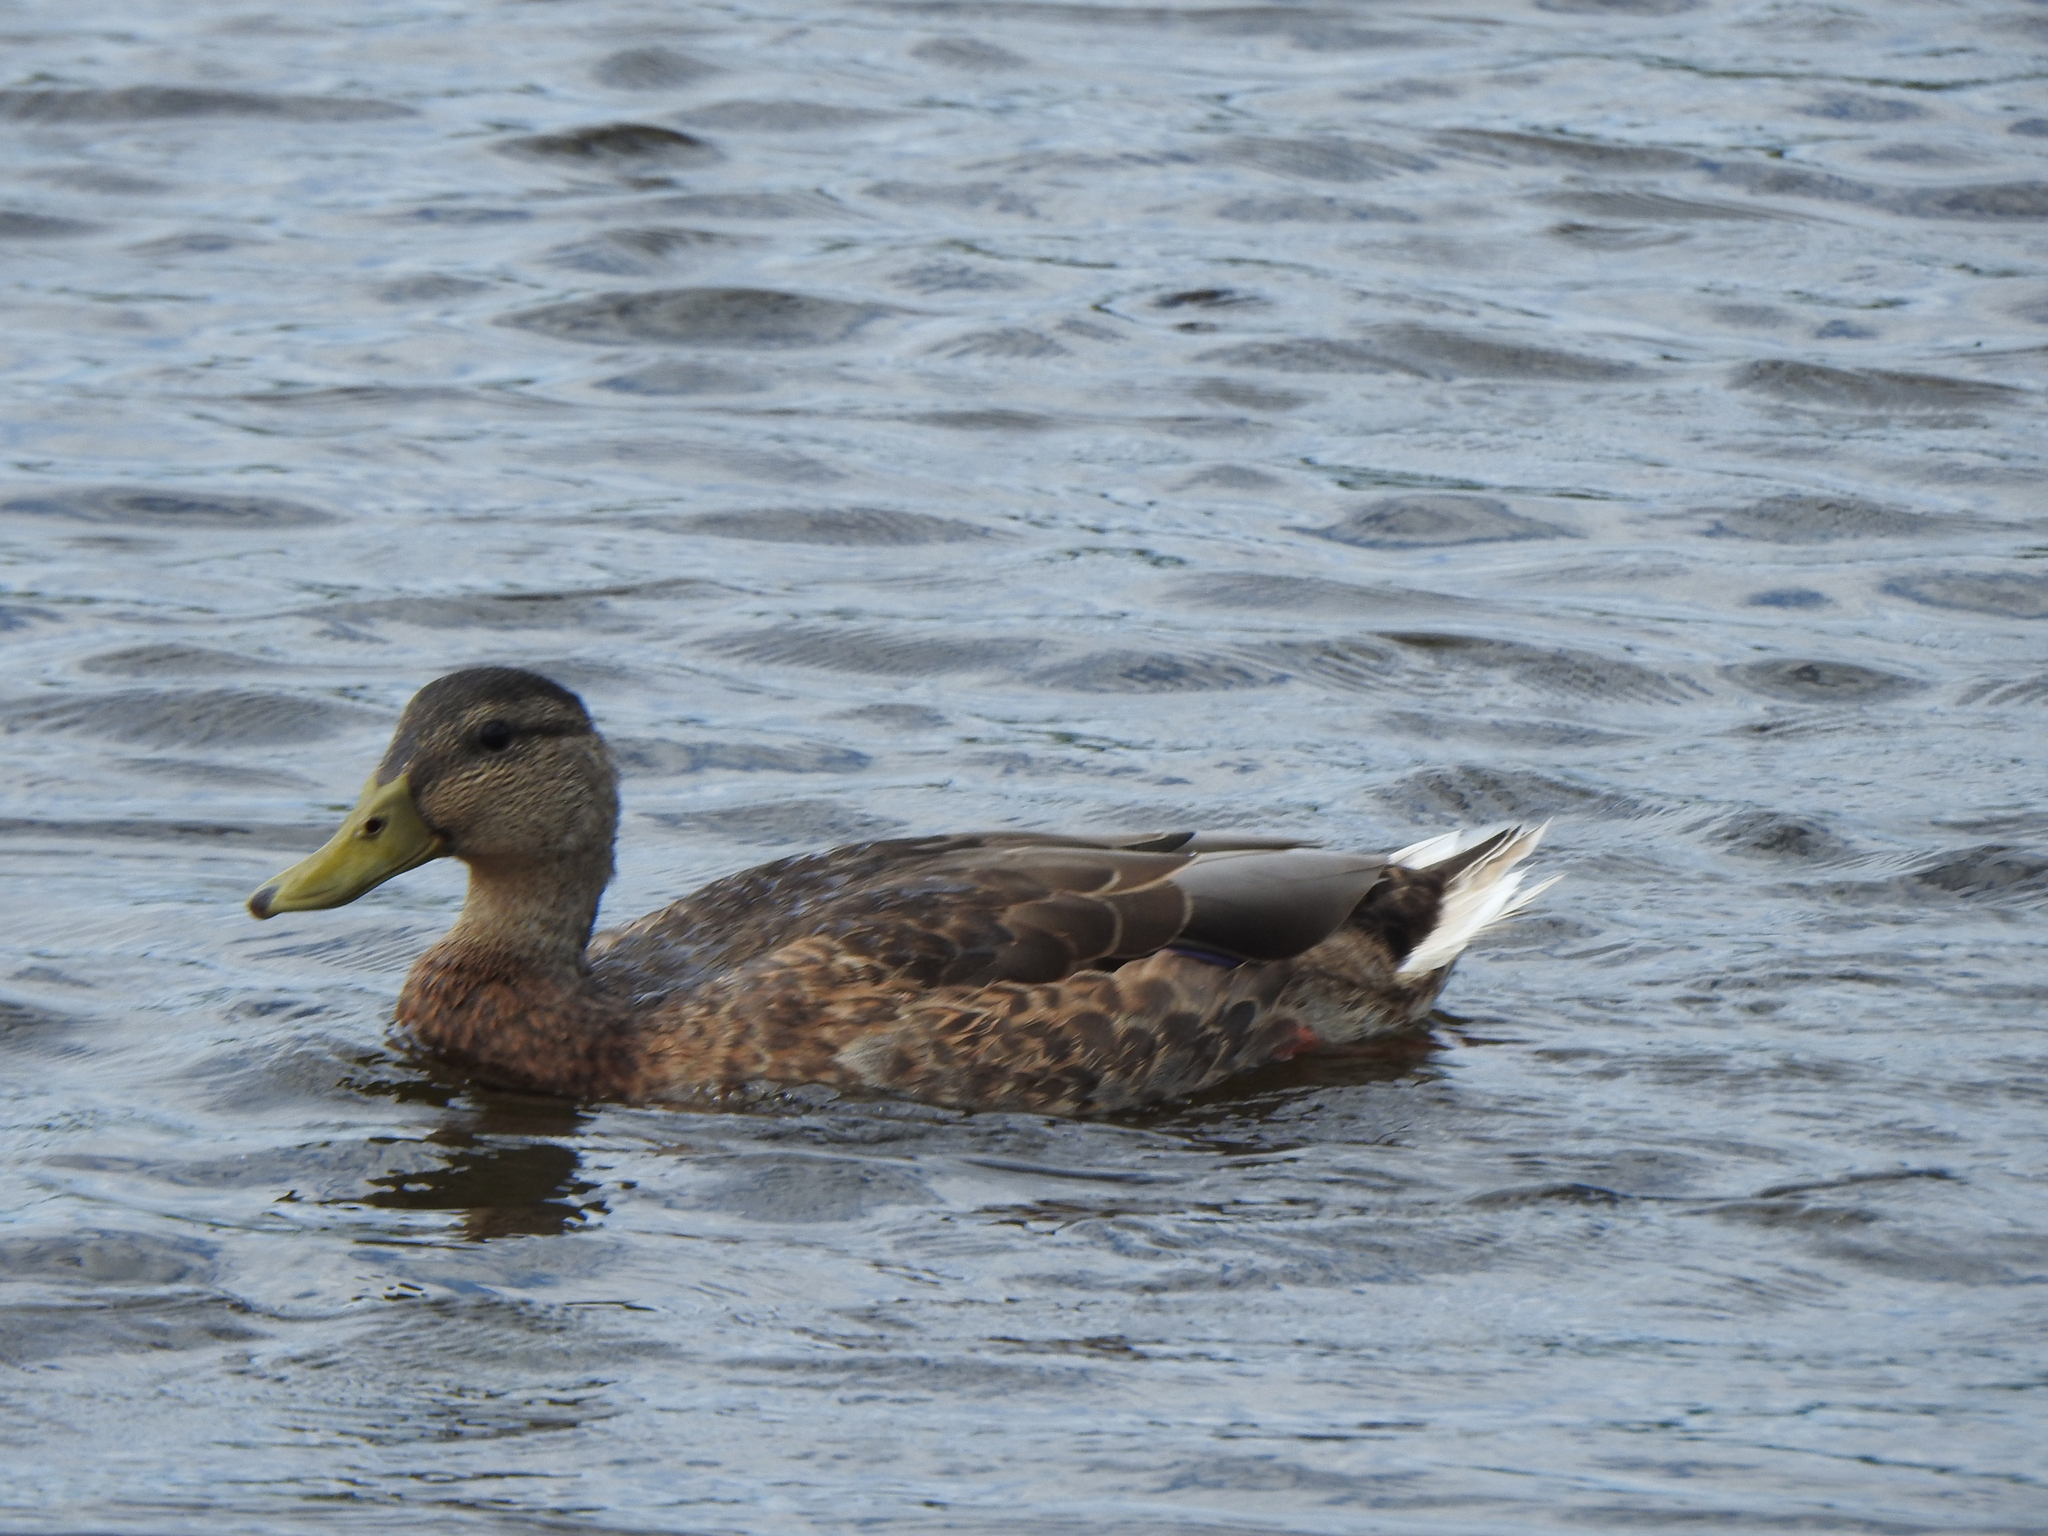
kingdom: Animalia
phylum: Chordata
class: Aves
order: Anseriformes
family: Anatidae
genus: Anas
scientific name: Anas platyrhynchos
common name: Mallard
